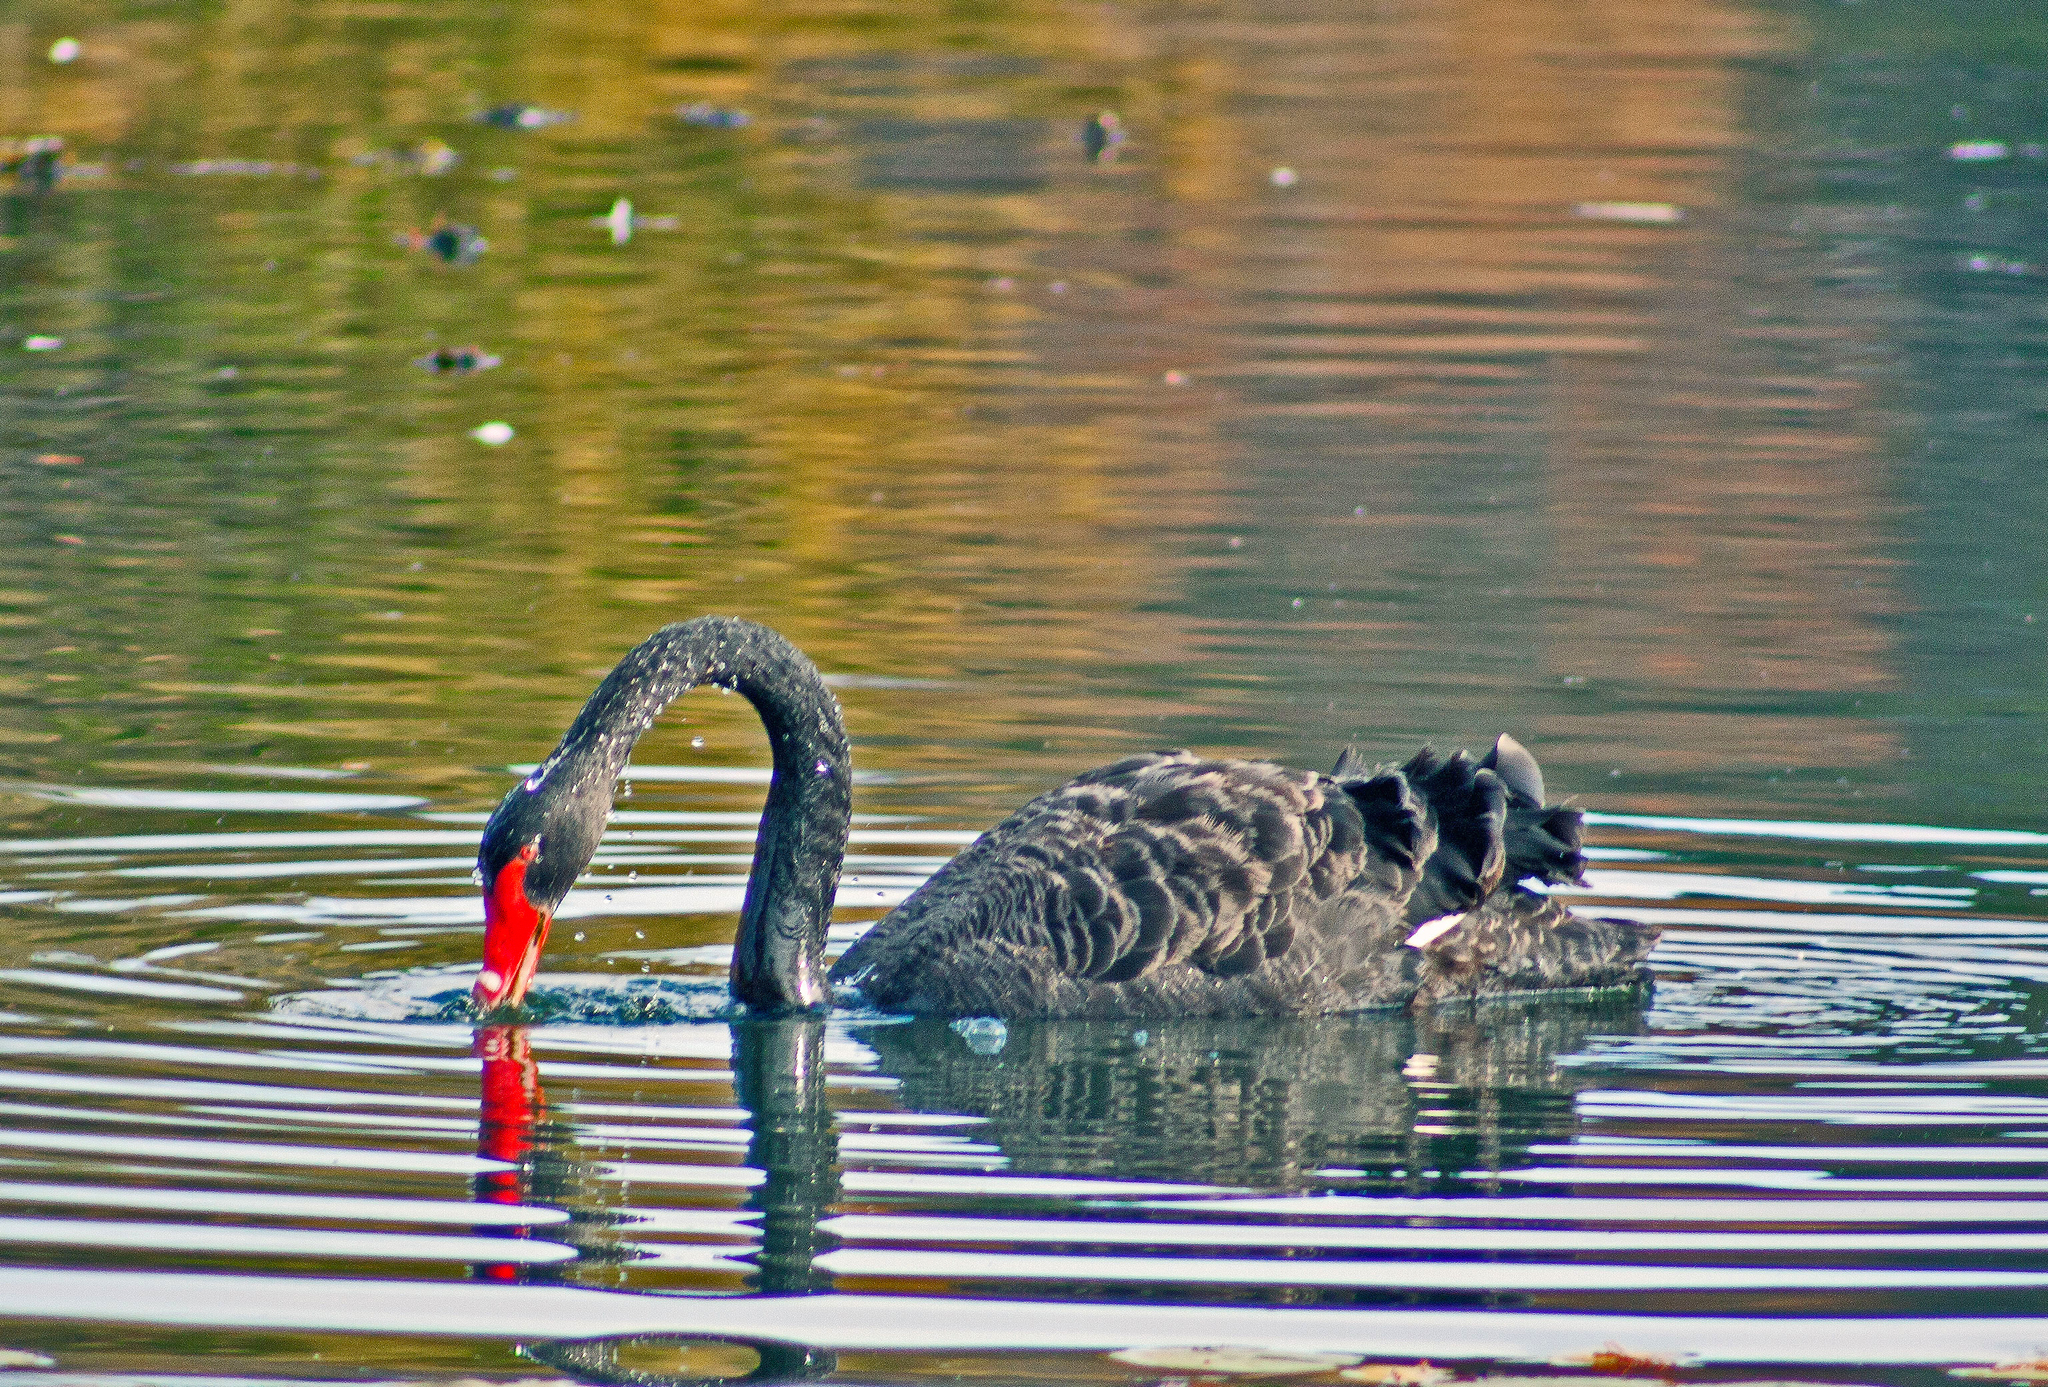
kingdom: Animalia
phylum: Chordata
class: Aves
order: Anseriformes
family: Anatidae
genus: Cygnus
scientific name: Cygnus atratus
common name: Black swan
